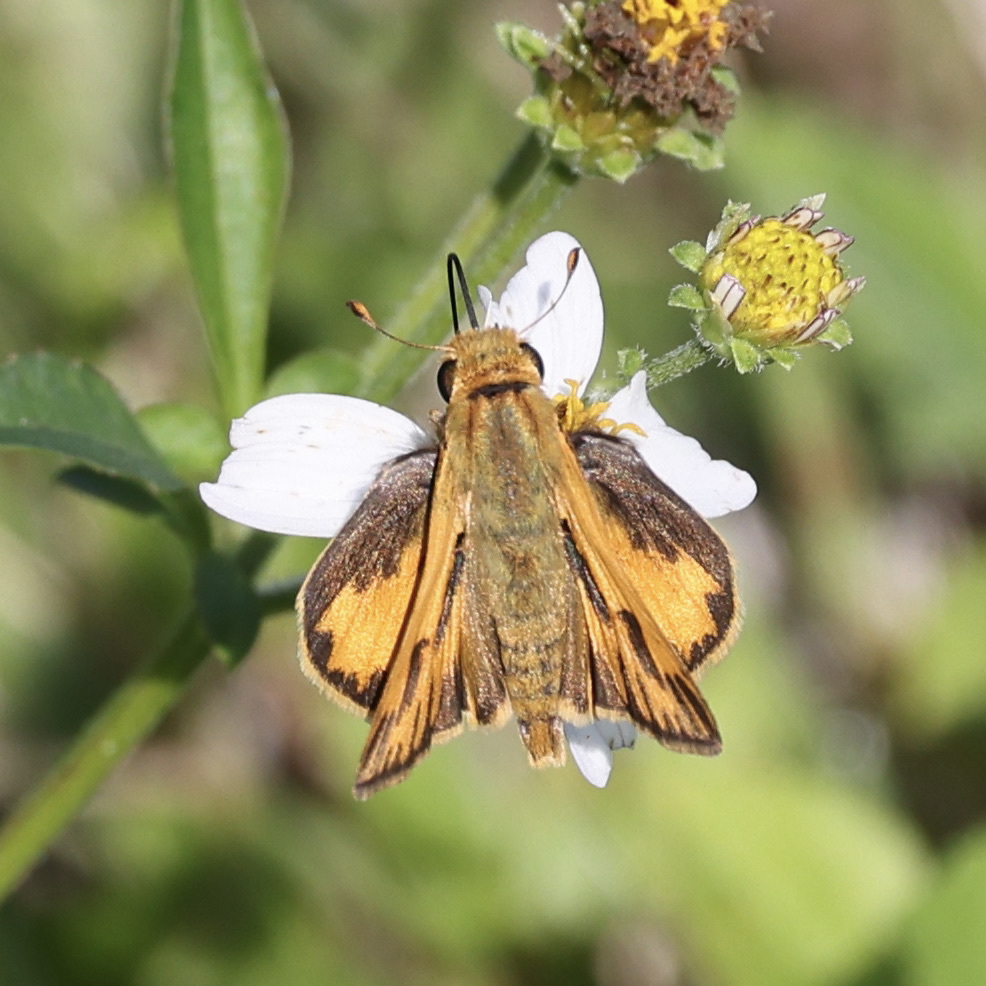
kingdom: Animalia
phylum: Arthropoda
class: Insecta
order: Lepidoptera
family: Hesperiidae
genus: Polites
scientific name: Polites vibex
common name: Whirlabout
